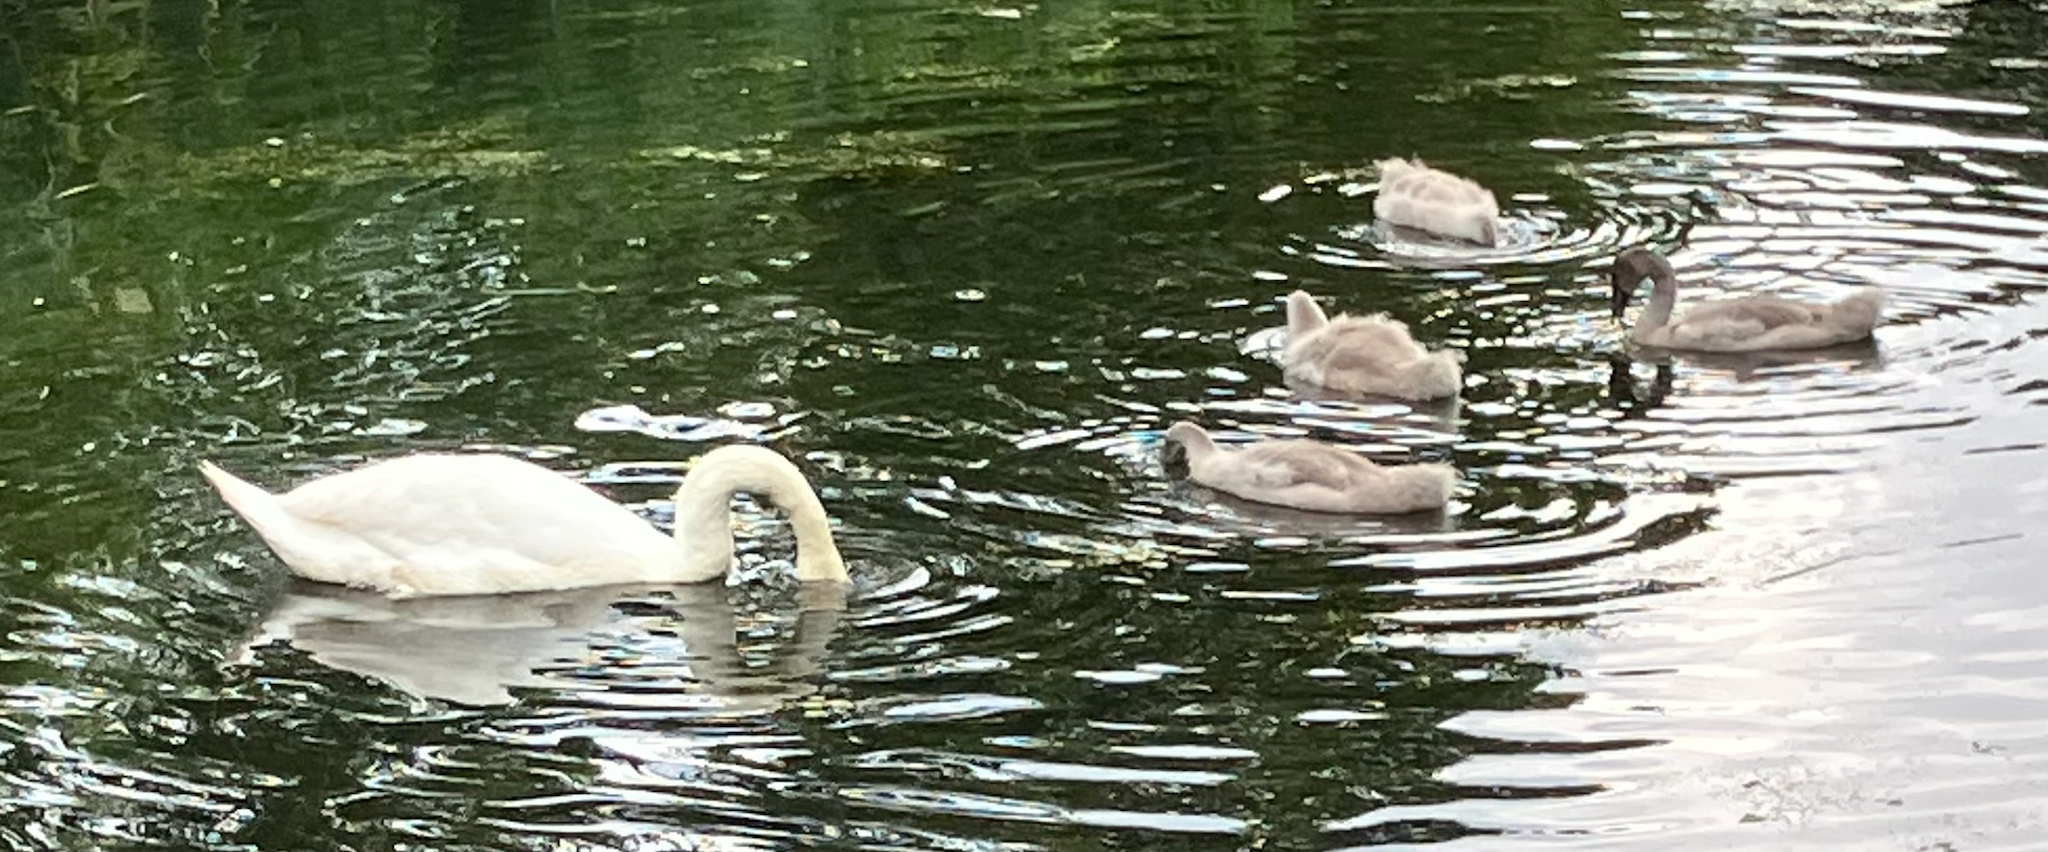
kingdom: Animalia
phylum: Chordata
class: Aves
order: Anseriformes
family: Anatidae
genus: Cygnus
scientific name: Cygnus olor
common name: Mute swan
